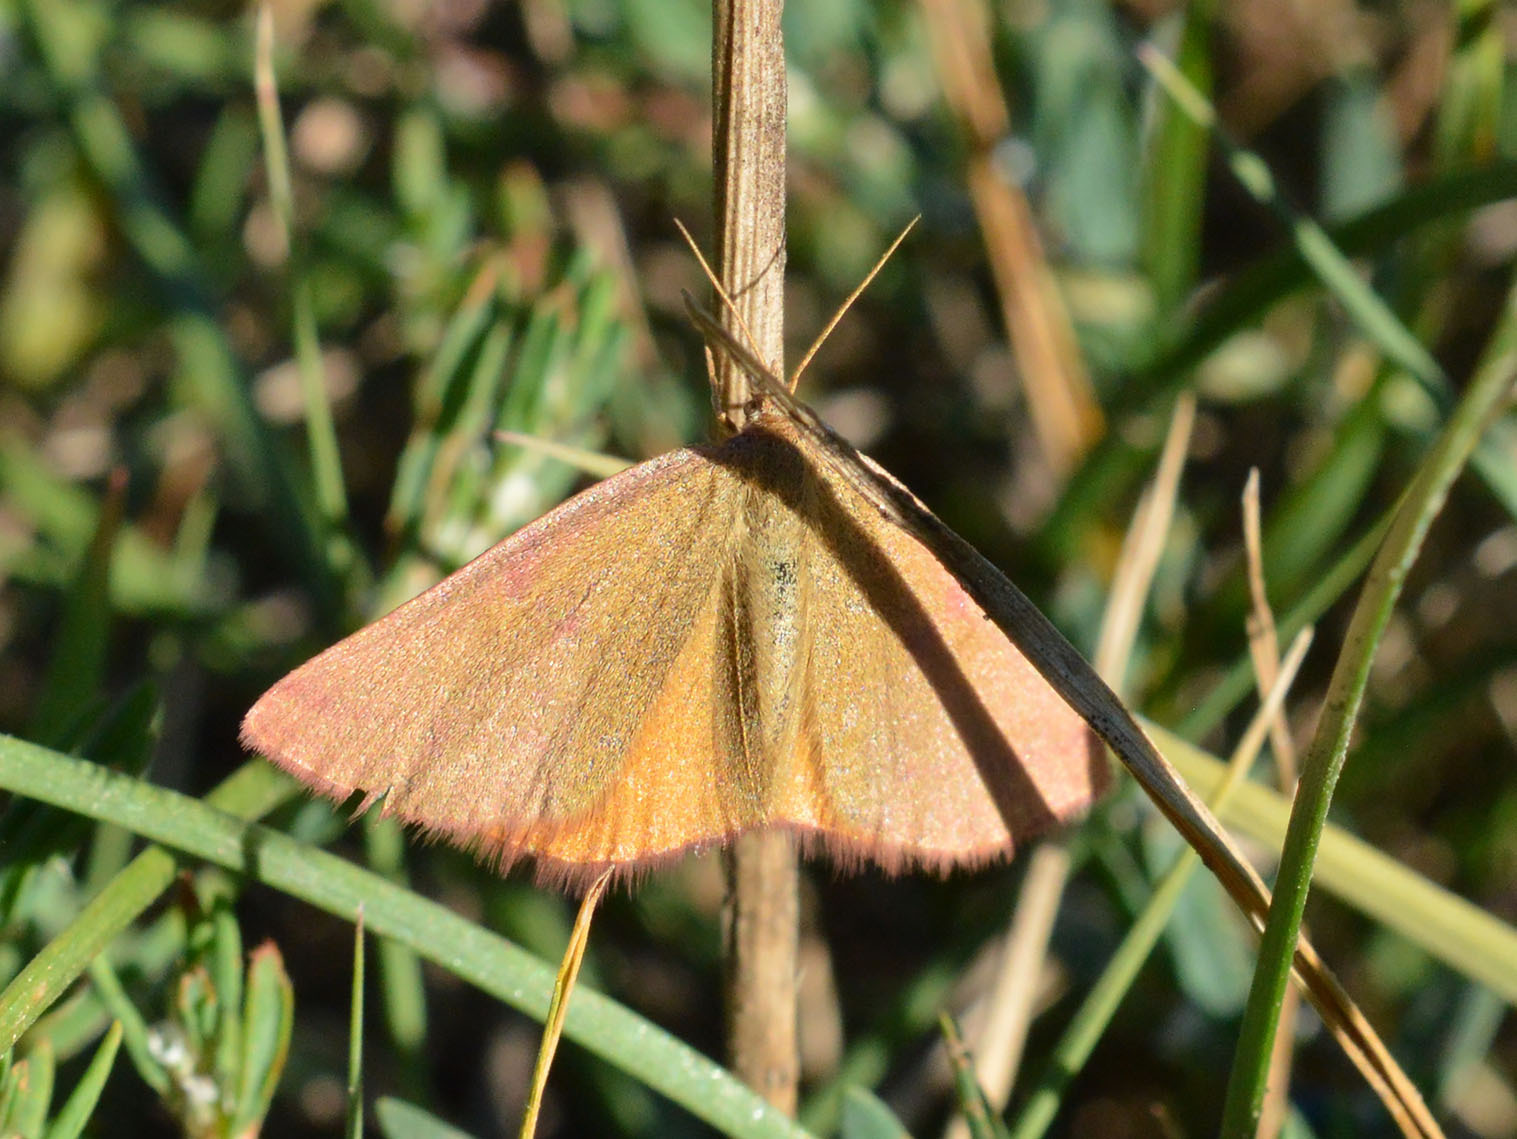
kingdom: Animalia
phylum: Arthropoda
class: Insecta
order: Lepidoptera
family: Geometridae
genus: Lythria
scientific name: Lythria purpuraria
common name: Purple-barred yellow
